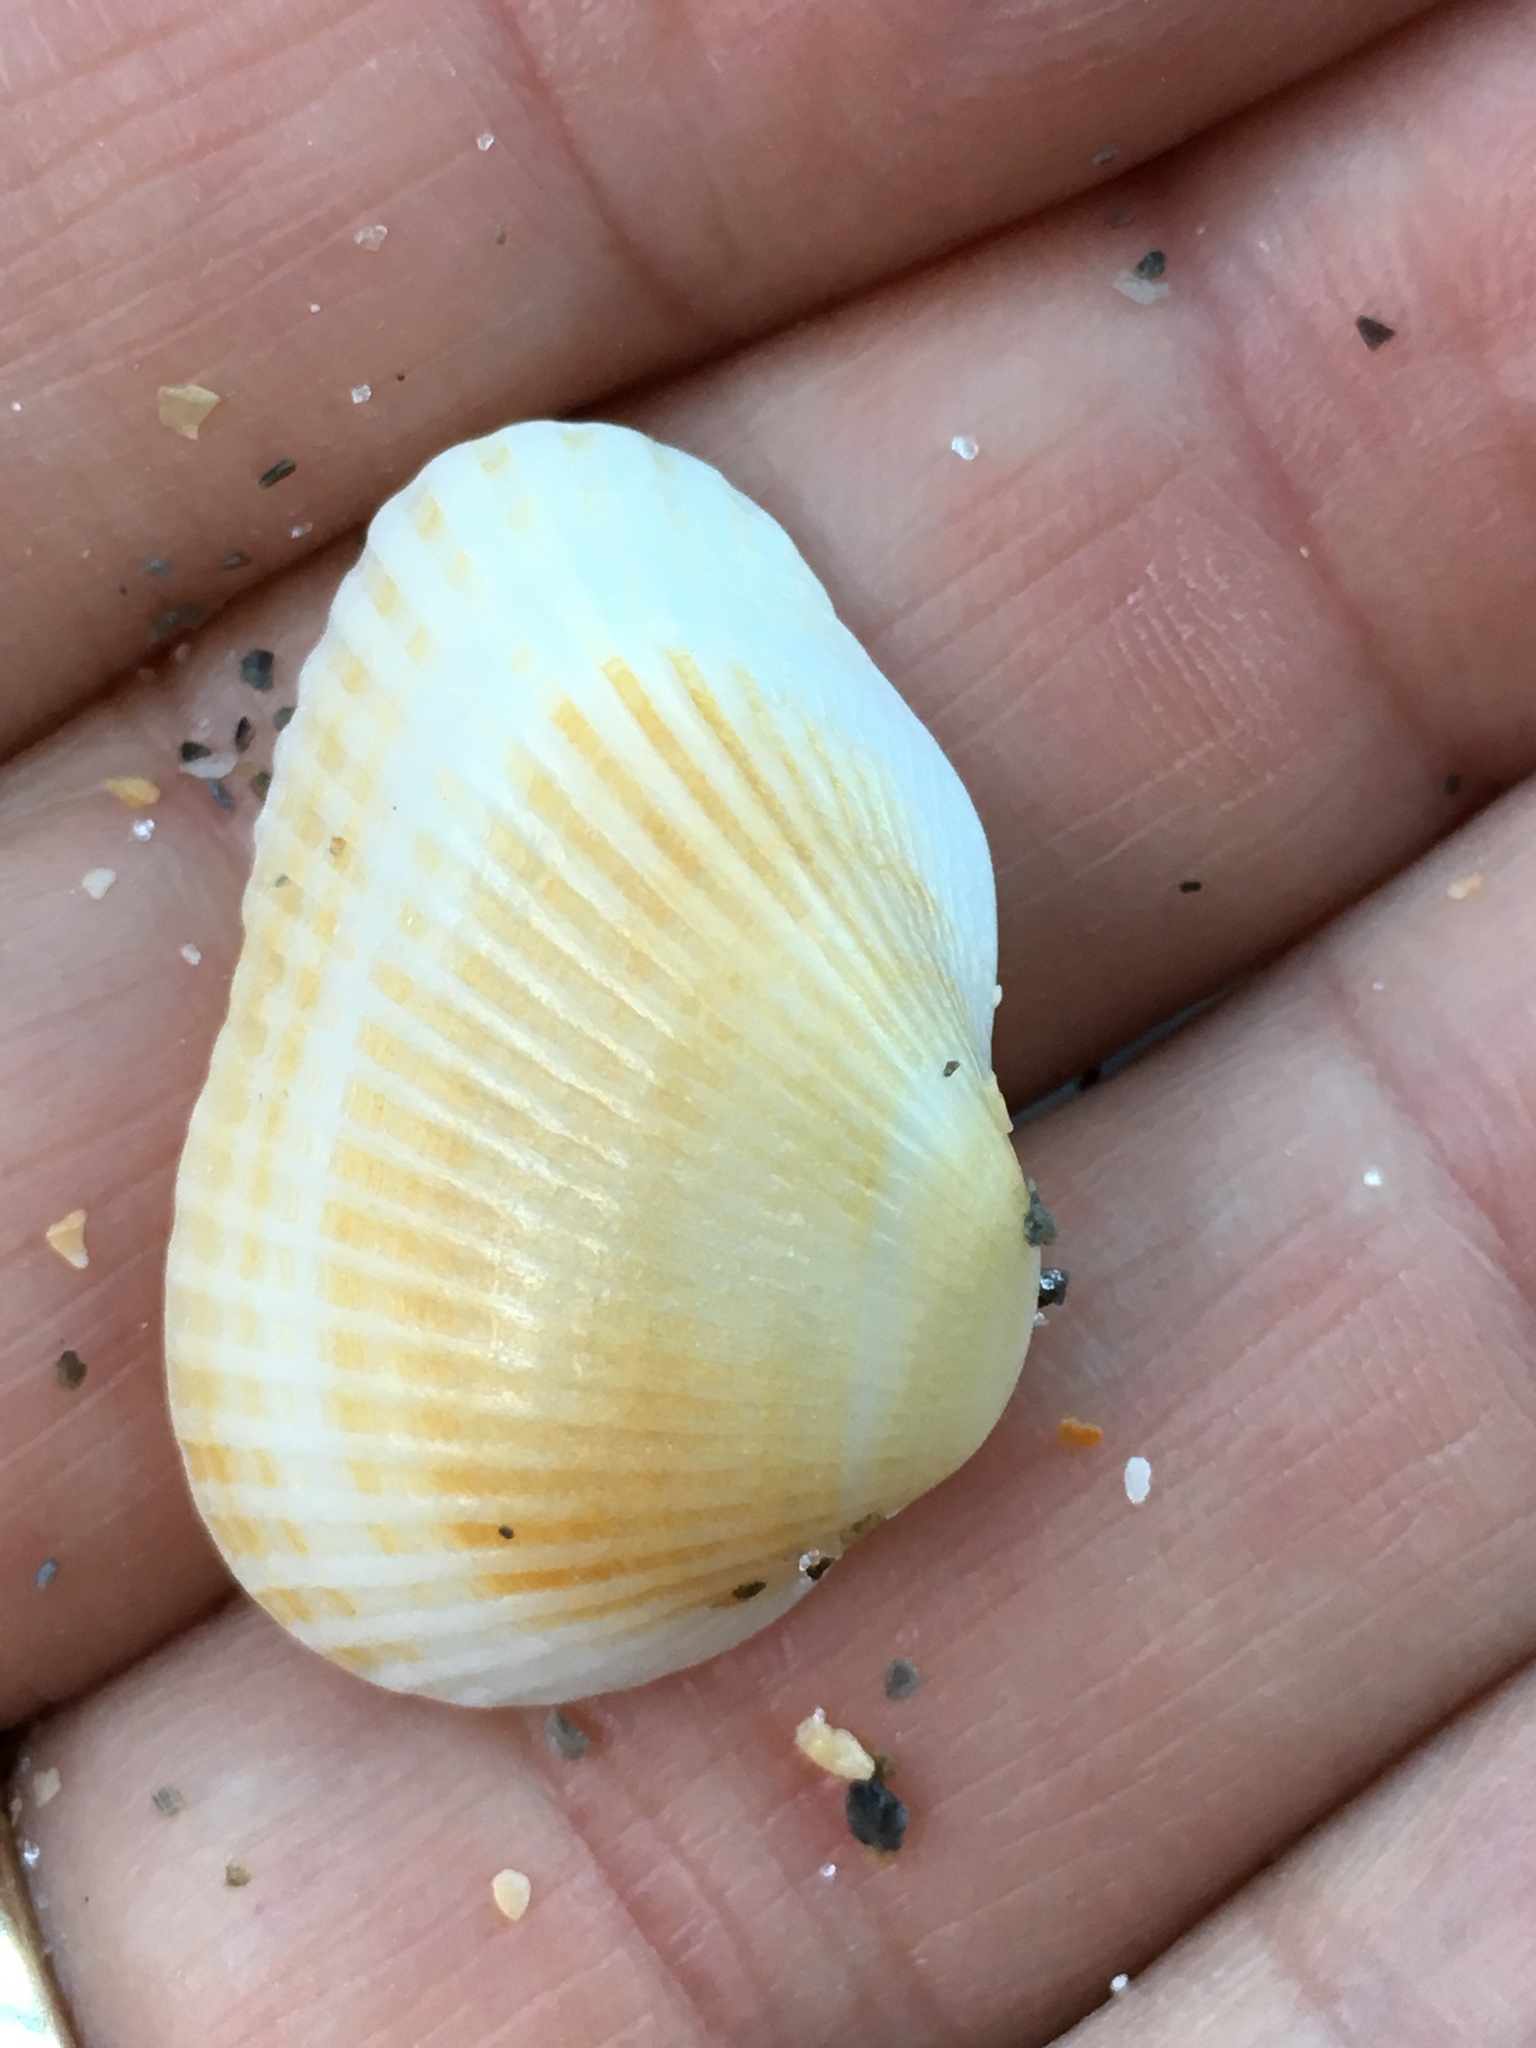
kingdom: Animalia
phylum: Mollusca
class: Bivalvia
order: Arcida
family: Arcidae
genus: Anadara
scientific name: Anadara transversa
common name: Transverse ark
